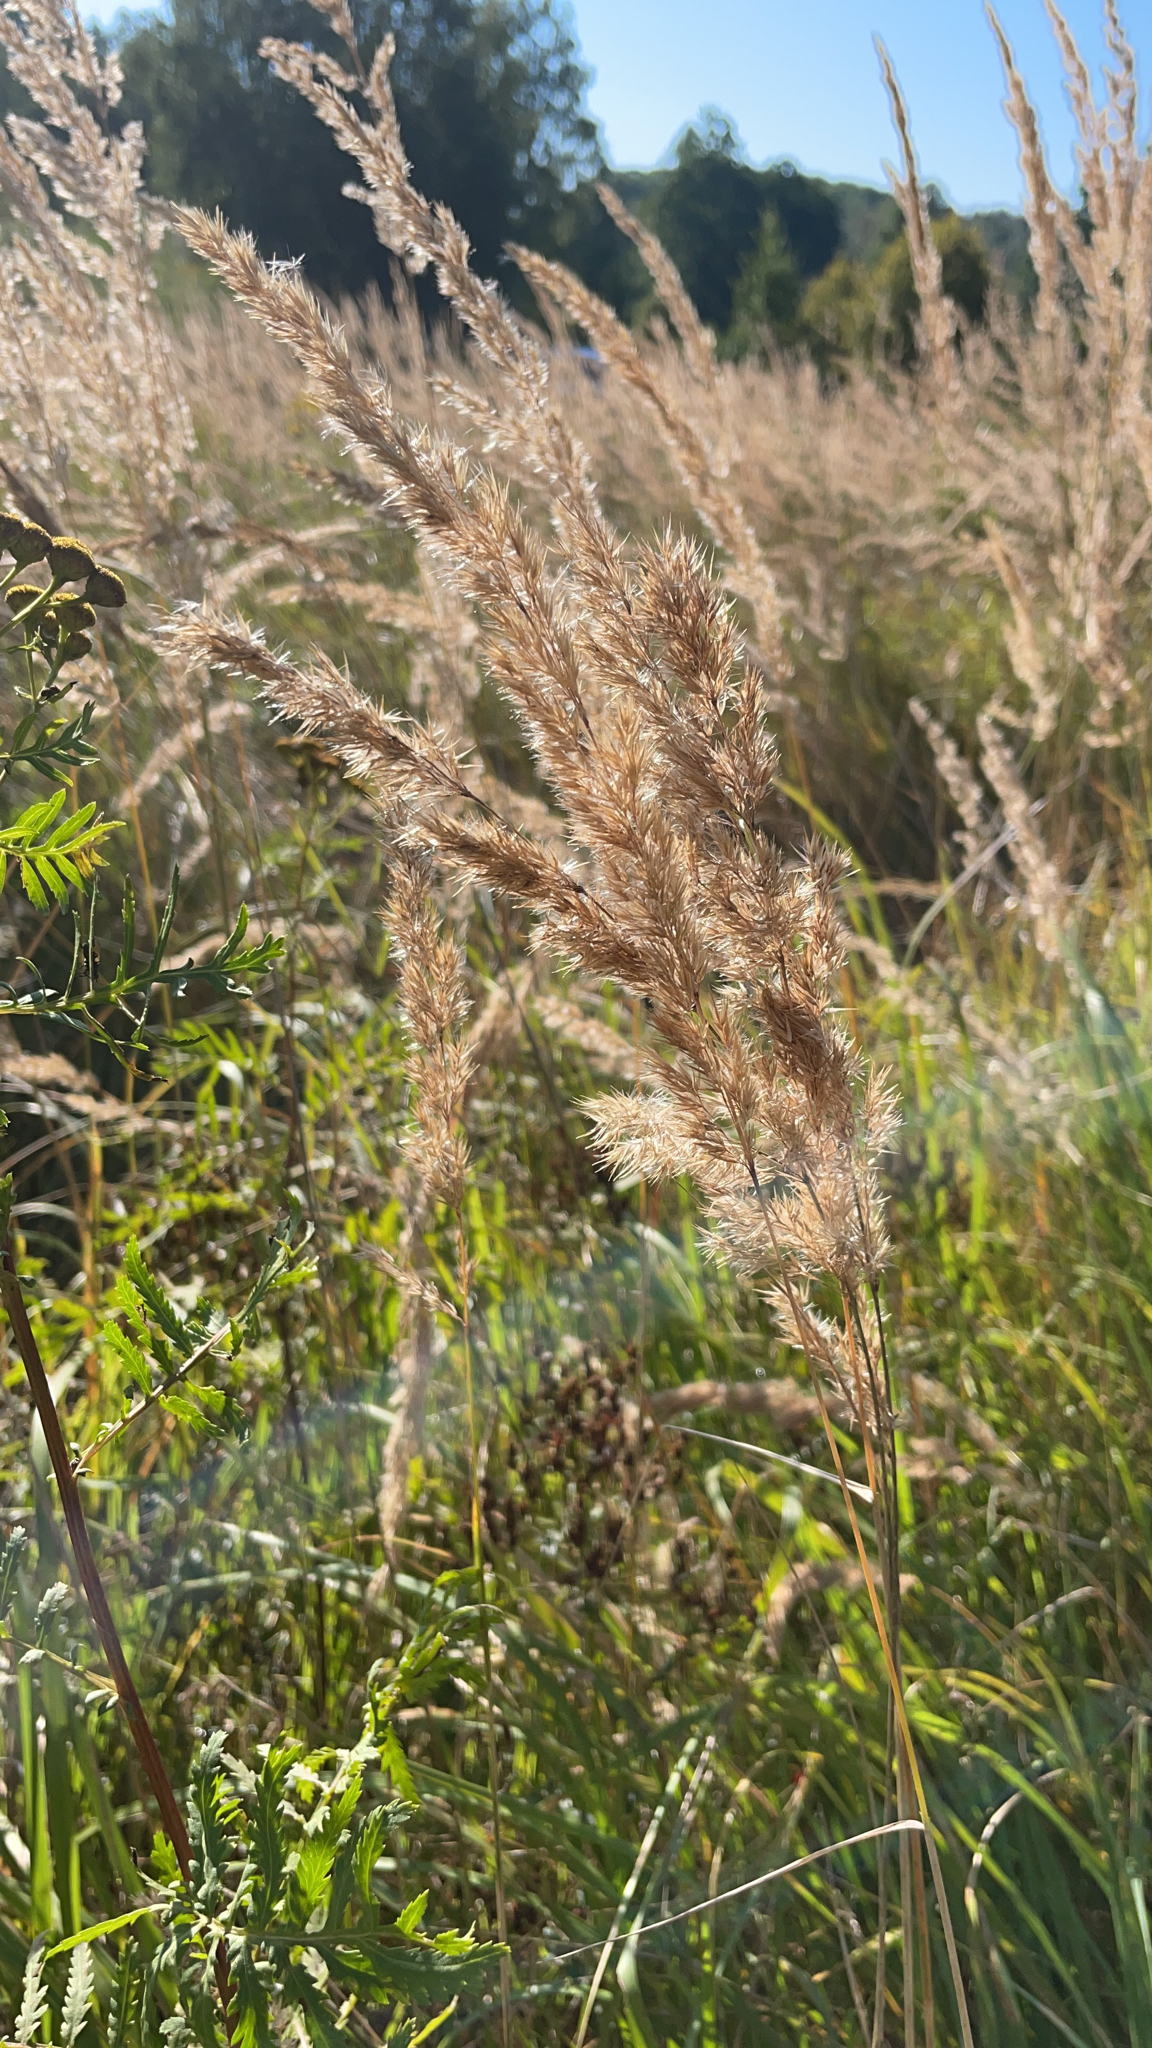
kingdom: Plantae
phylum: Tracheophyta
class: Liliopsida
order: Poales
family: Poaceae
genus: Calamagrostis
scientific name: Calamagrostis epigejos
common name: Wood small-reed
